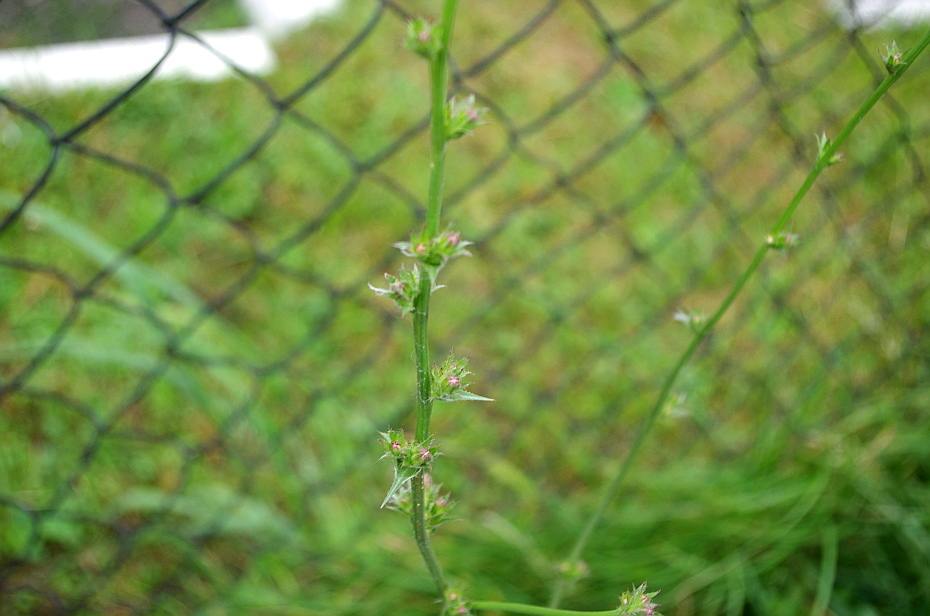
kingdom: Plantae
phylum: Tracheophyta
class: Magnoliopsida
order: Asterales
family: Asteraceae
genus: Cichorium
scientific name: Cichorium intybus
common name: Chicory
